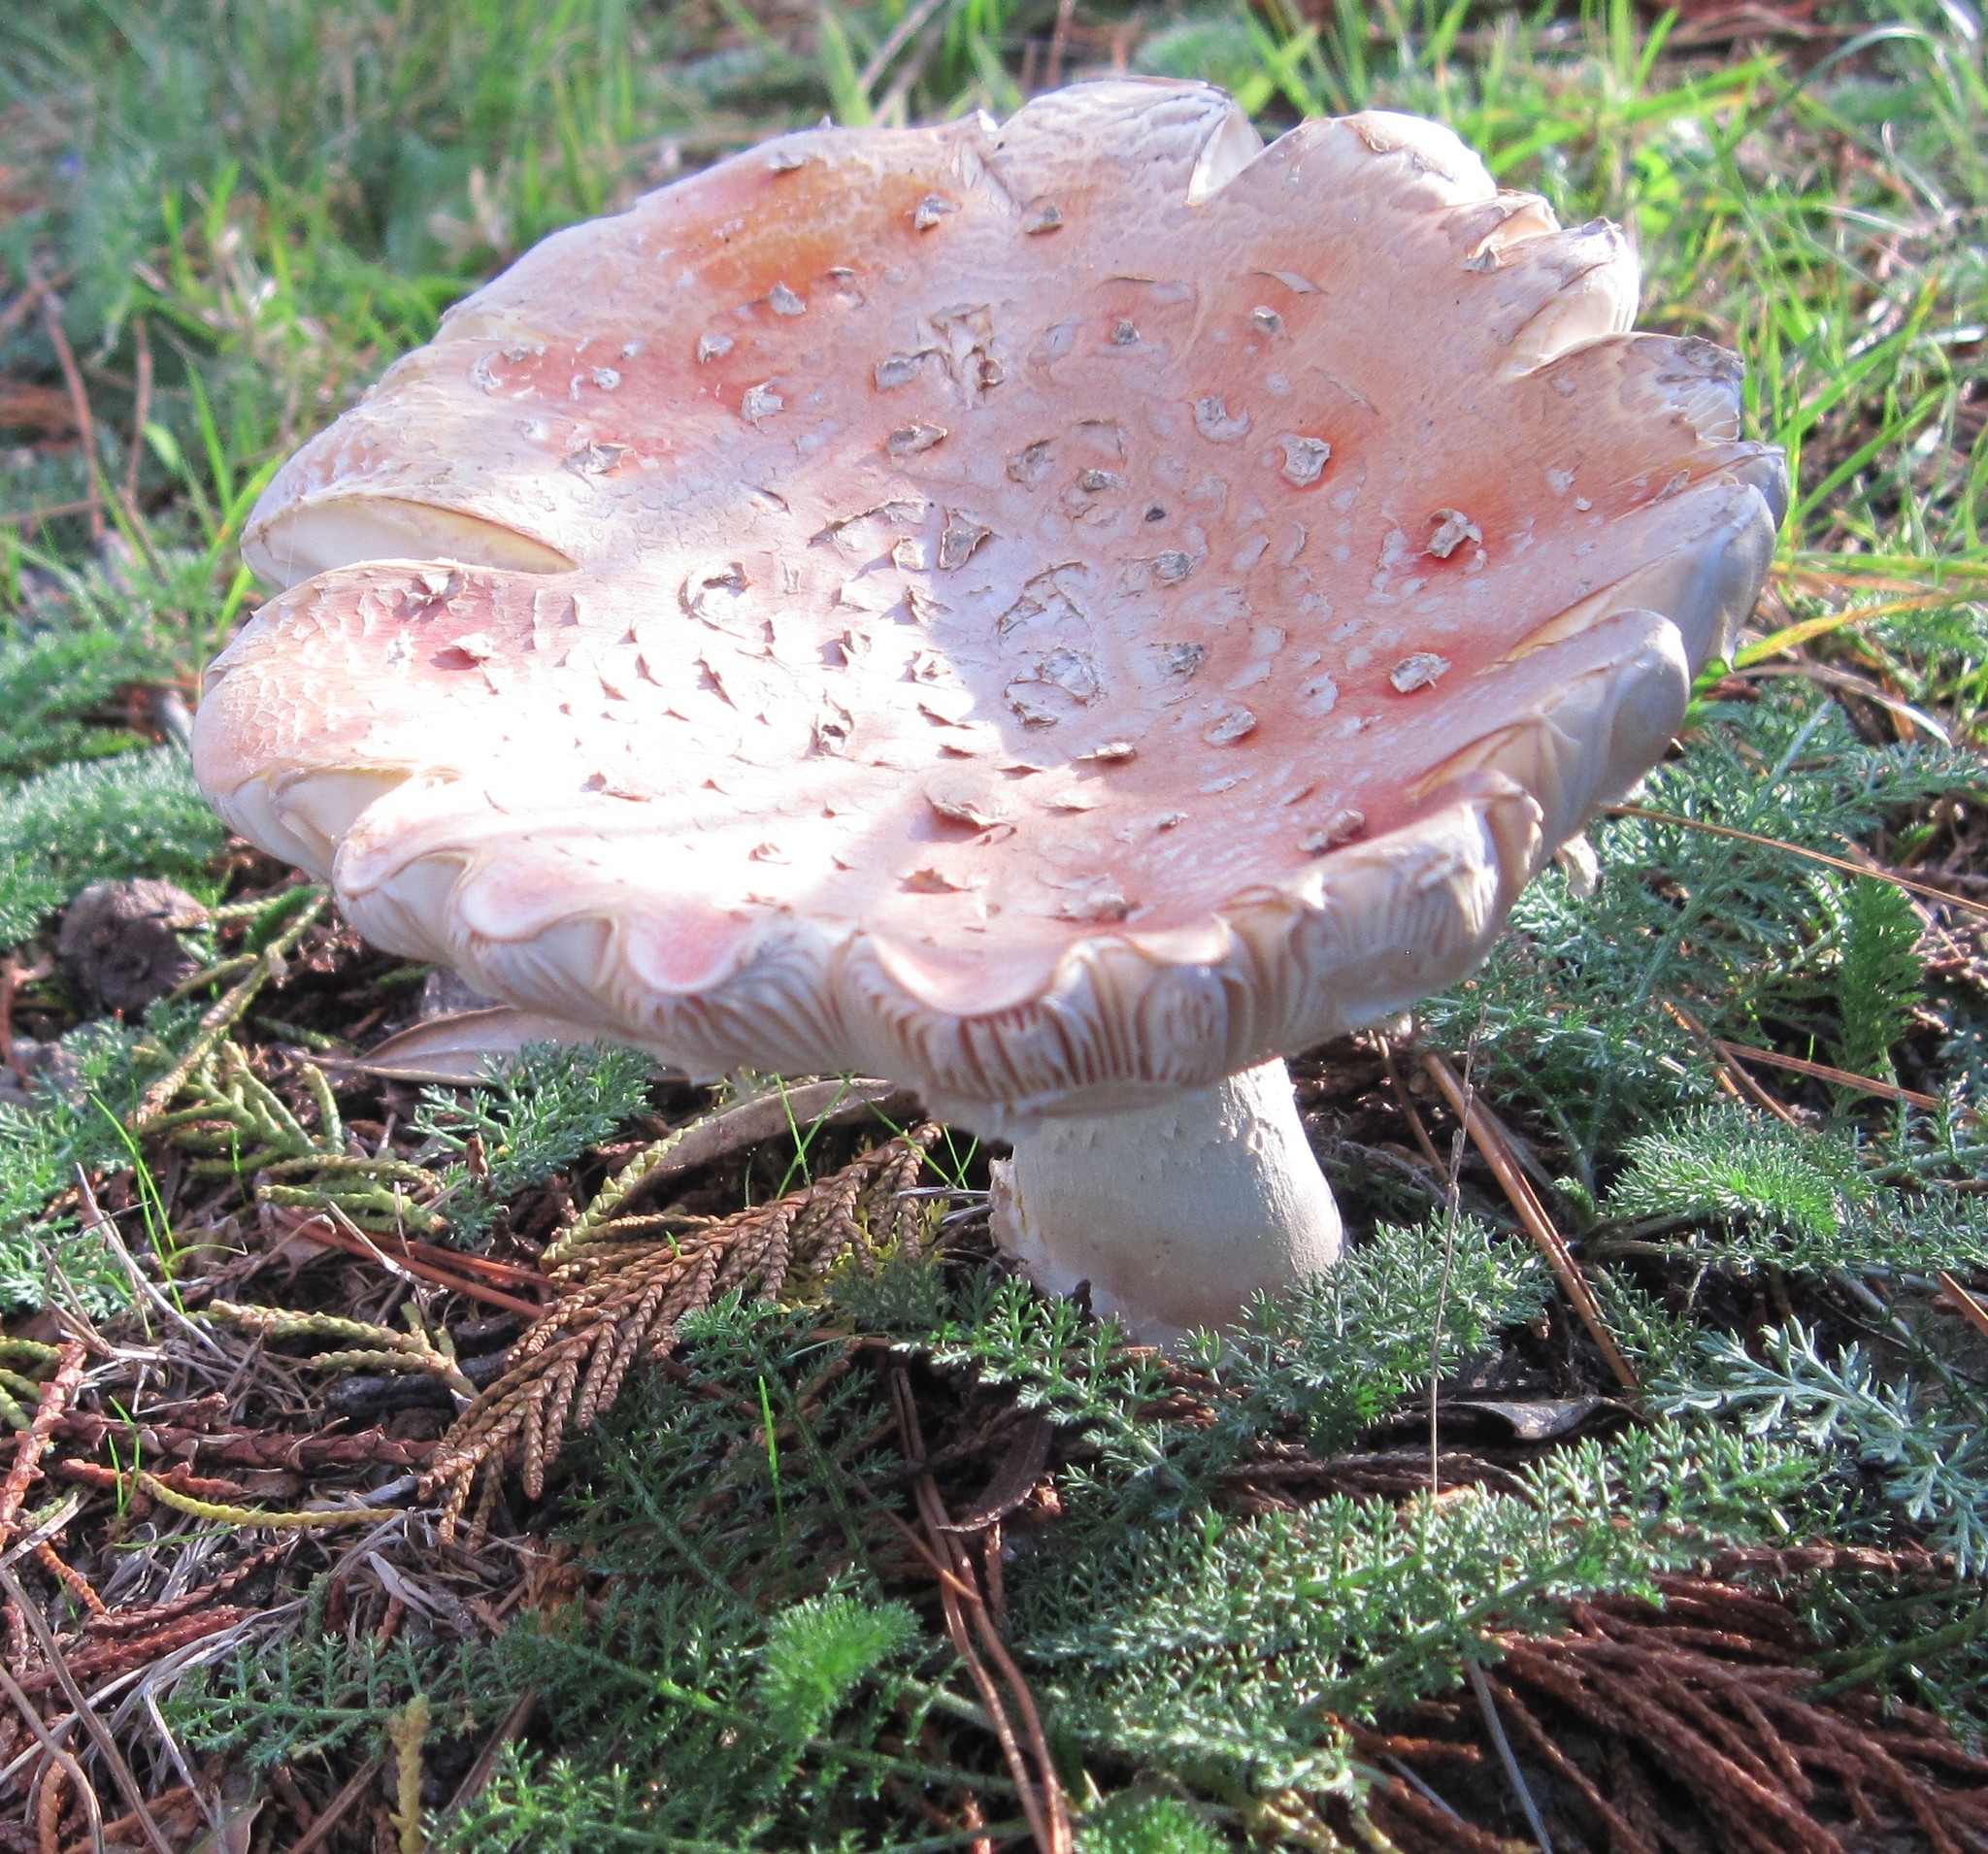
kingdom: Fungi
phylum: Basidiomycota
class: Agaricomycetes
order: Agaricales
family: Amanitaceae
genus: Amanita
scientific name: Amanita muscaria
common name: Fly agaric
